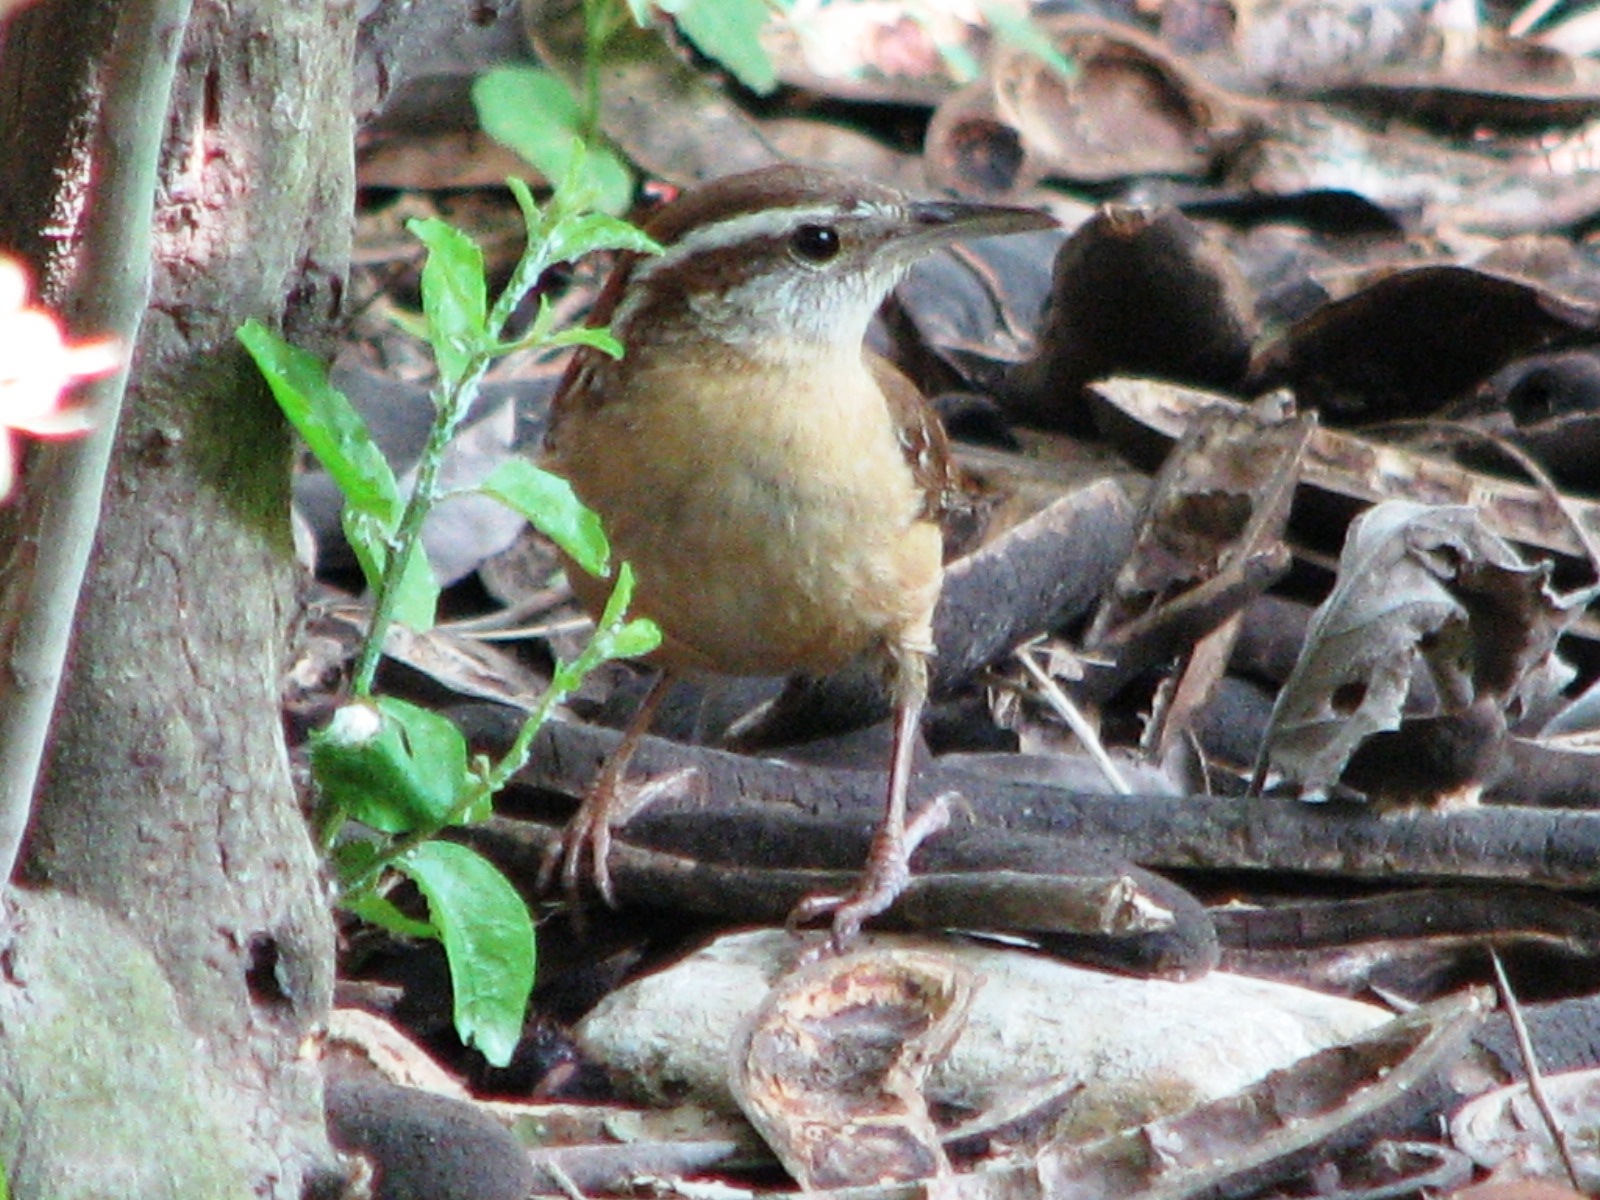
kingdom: Animalia
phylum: Chordata
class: Aves
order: Passeriformes
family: Troglodytidae
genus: Thryothorus
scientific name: Thryothorus ludovicianus
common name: Carolina wren
